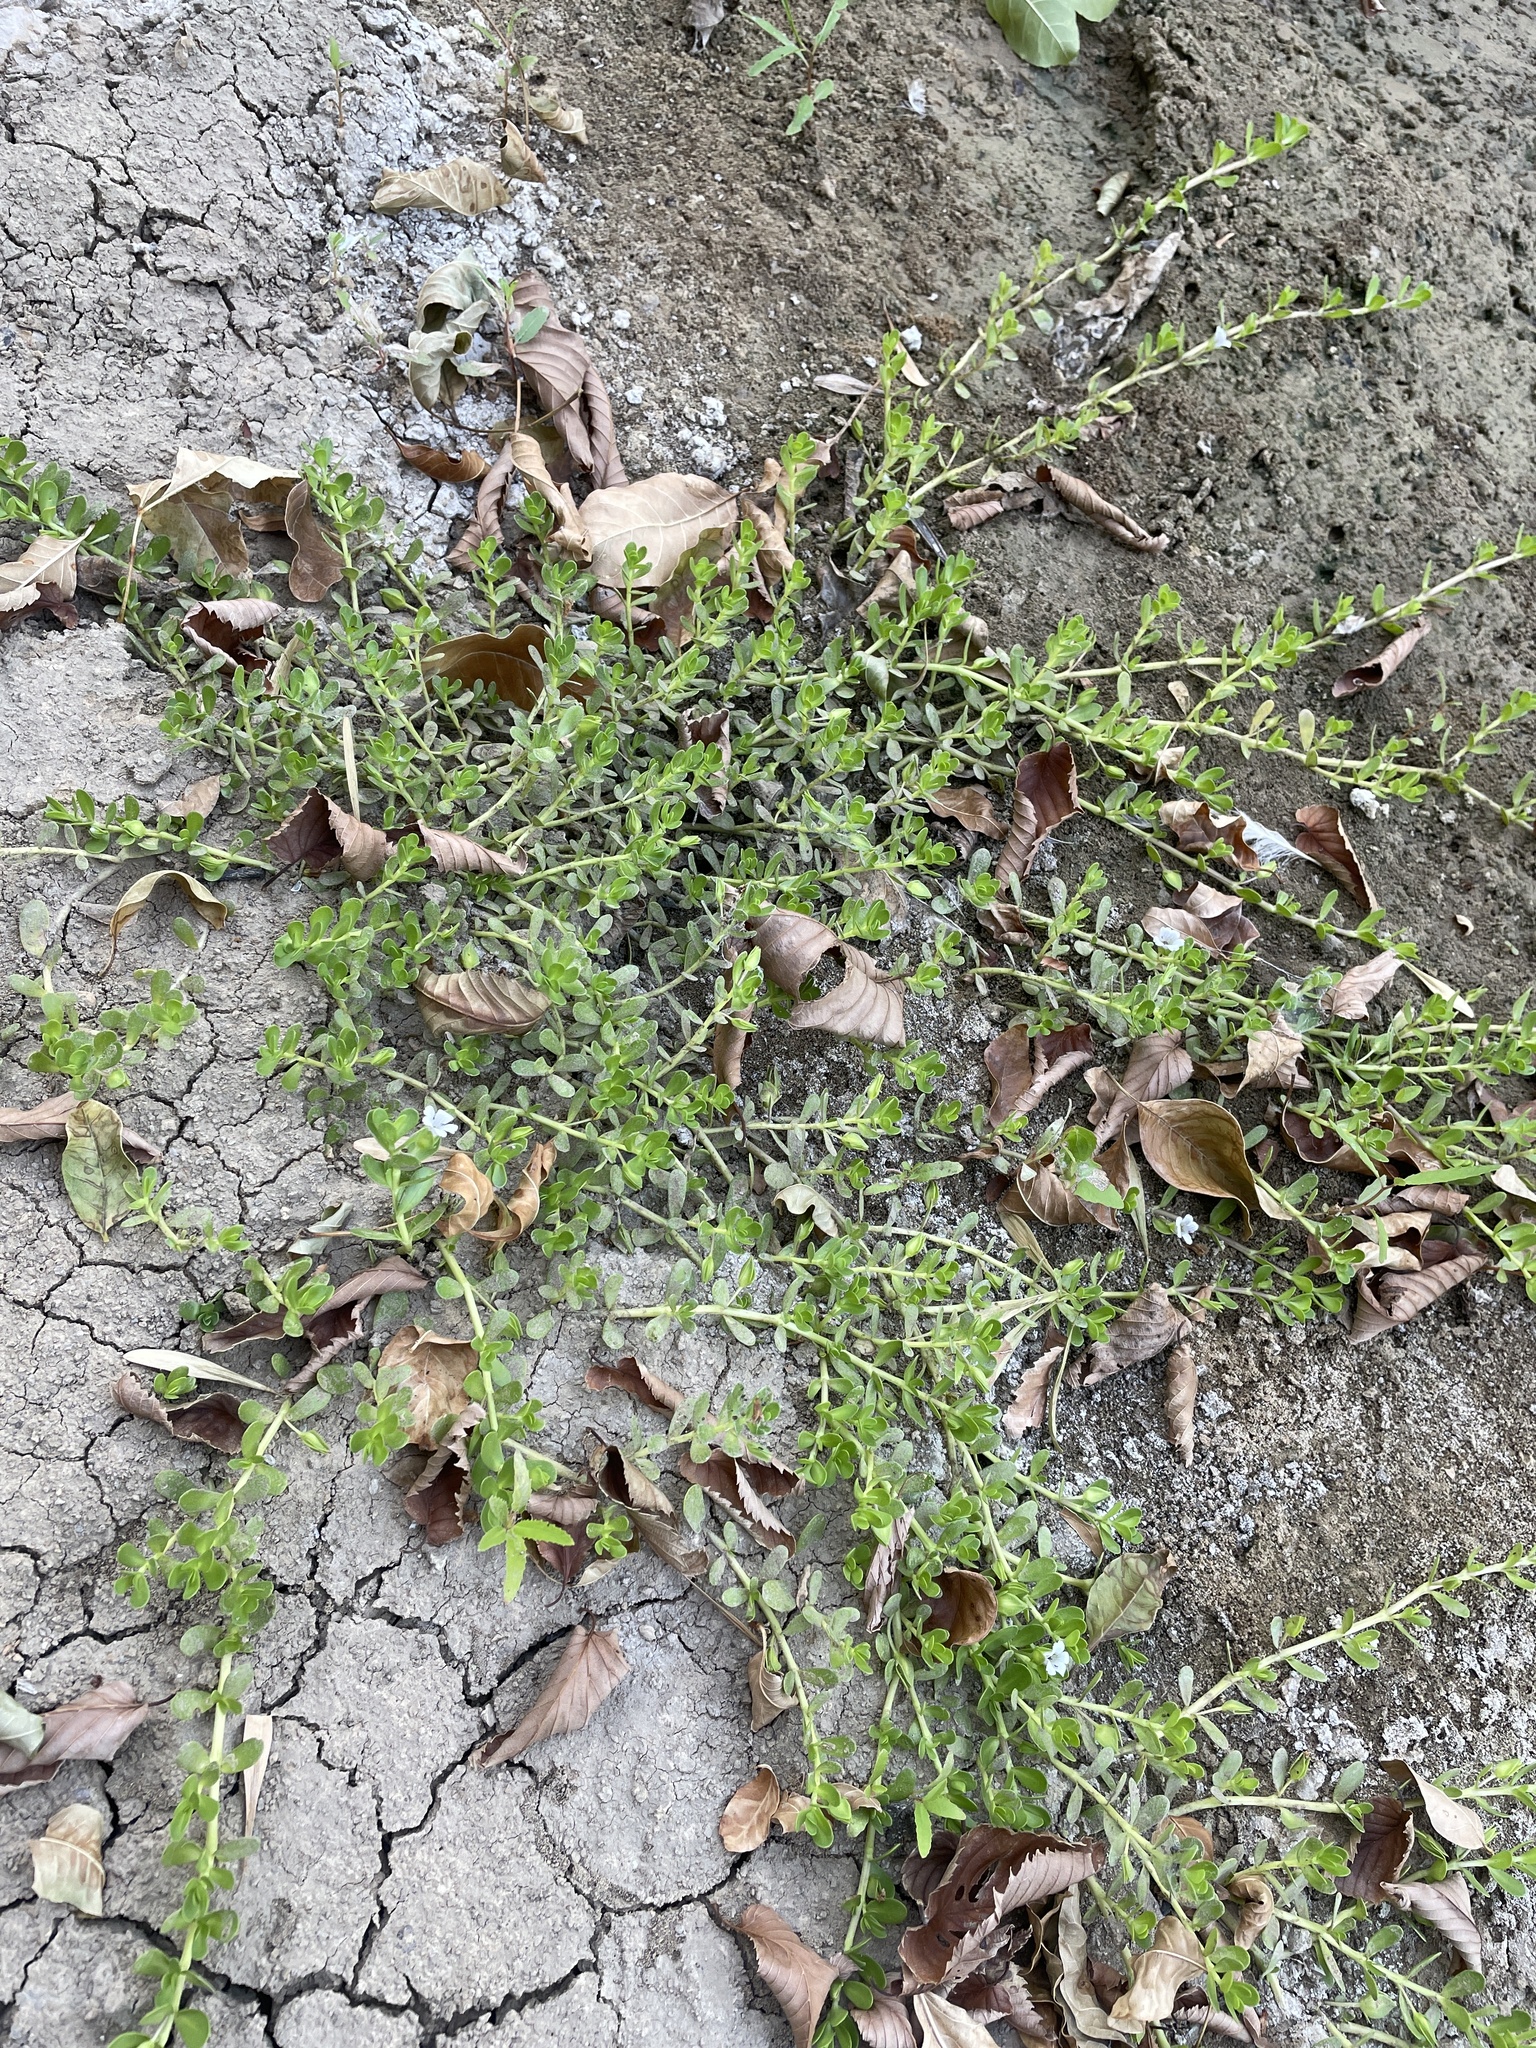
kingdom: Plantae
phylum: Tracheophyta
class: Magnoliopsida
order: Lamiales
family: Plantaginaceae
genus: Bacopa
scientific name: Bacopa monnieri
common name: Indian-pennywort
